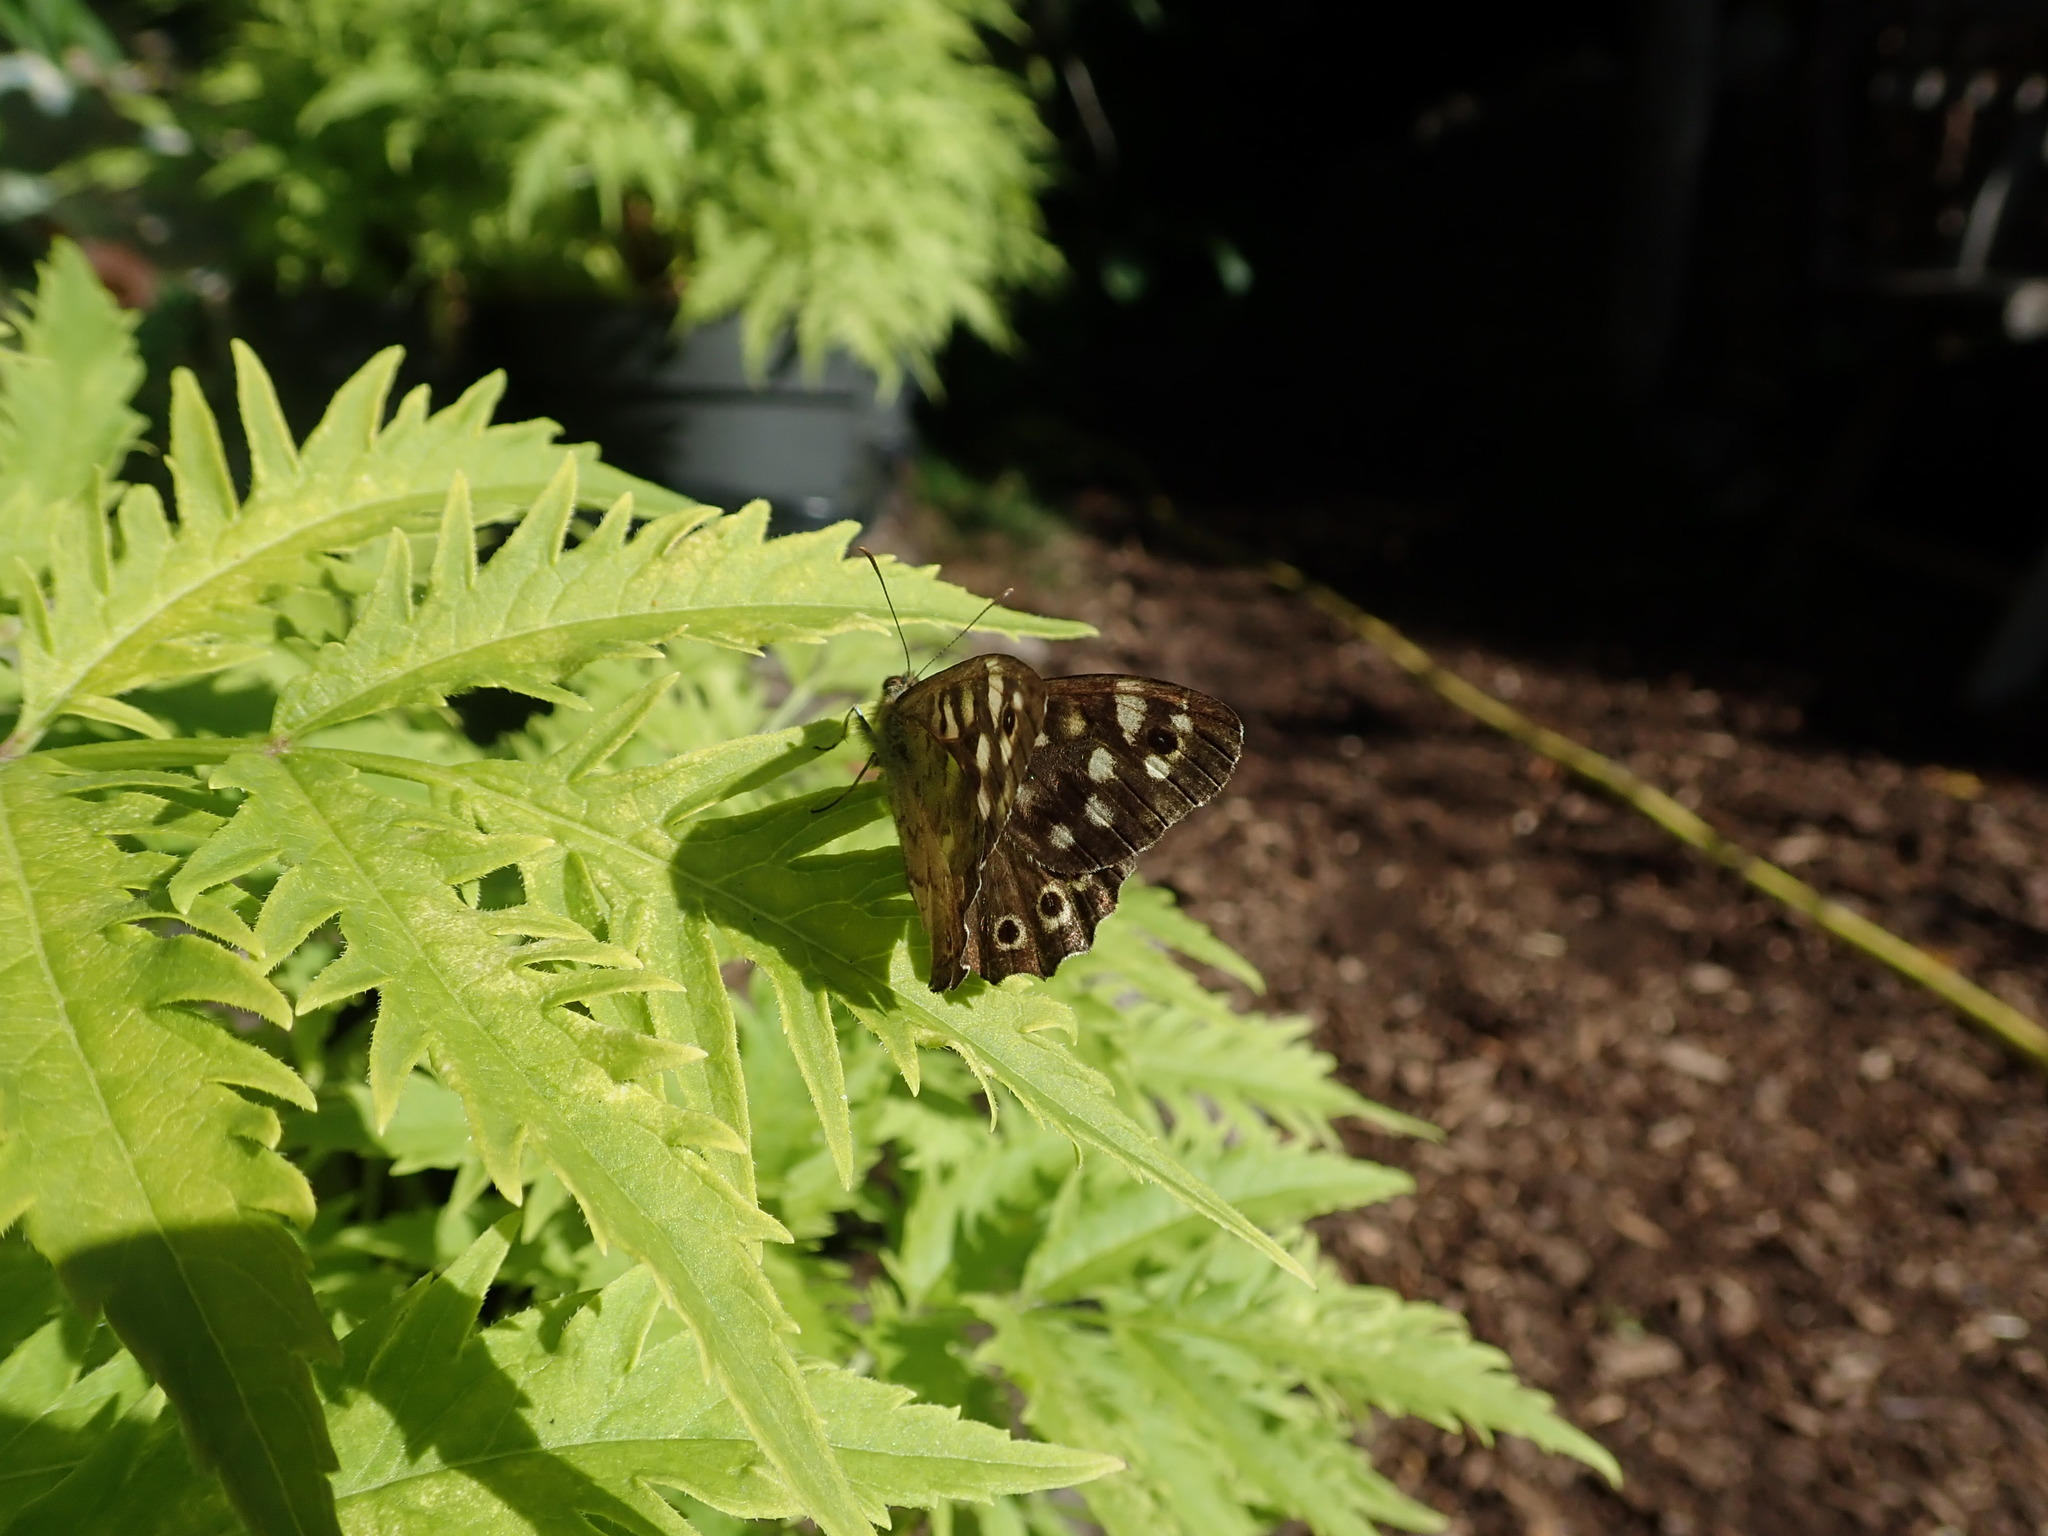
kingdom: Animalia
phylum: Arthropoda
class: Insecta
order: Lepidoptera
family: Nymphalidae
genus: Pararge
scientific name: Pararge aegeria
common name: Speckled wood
